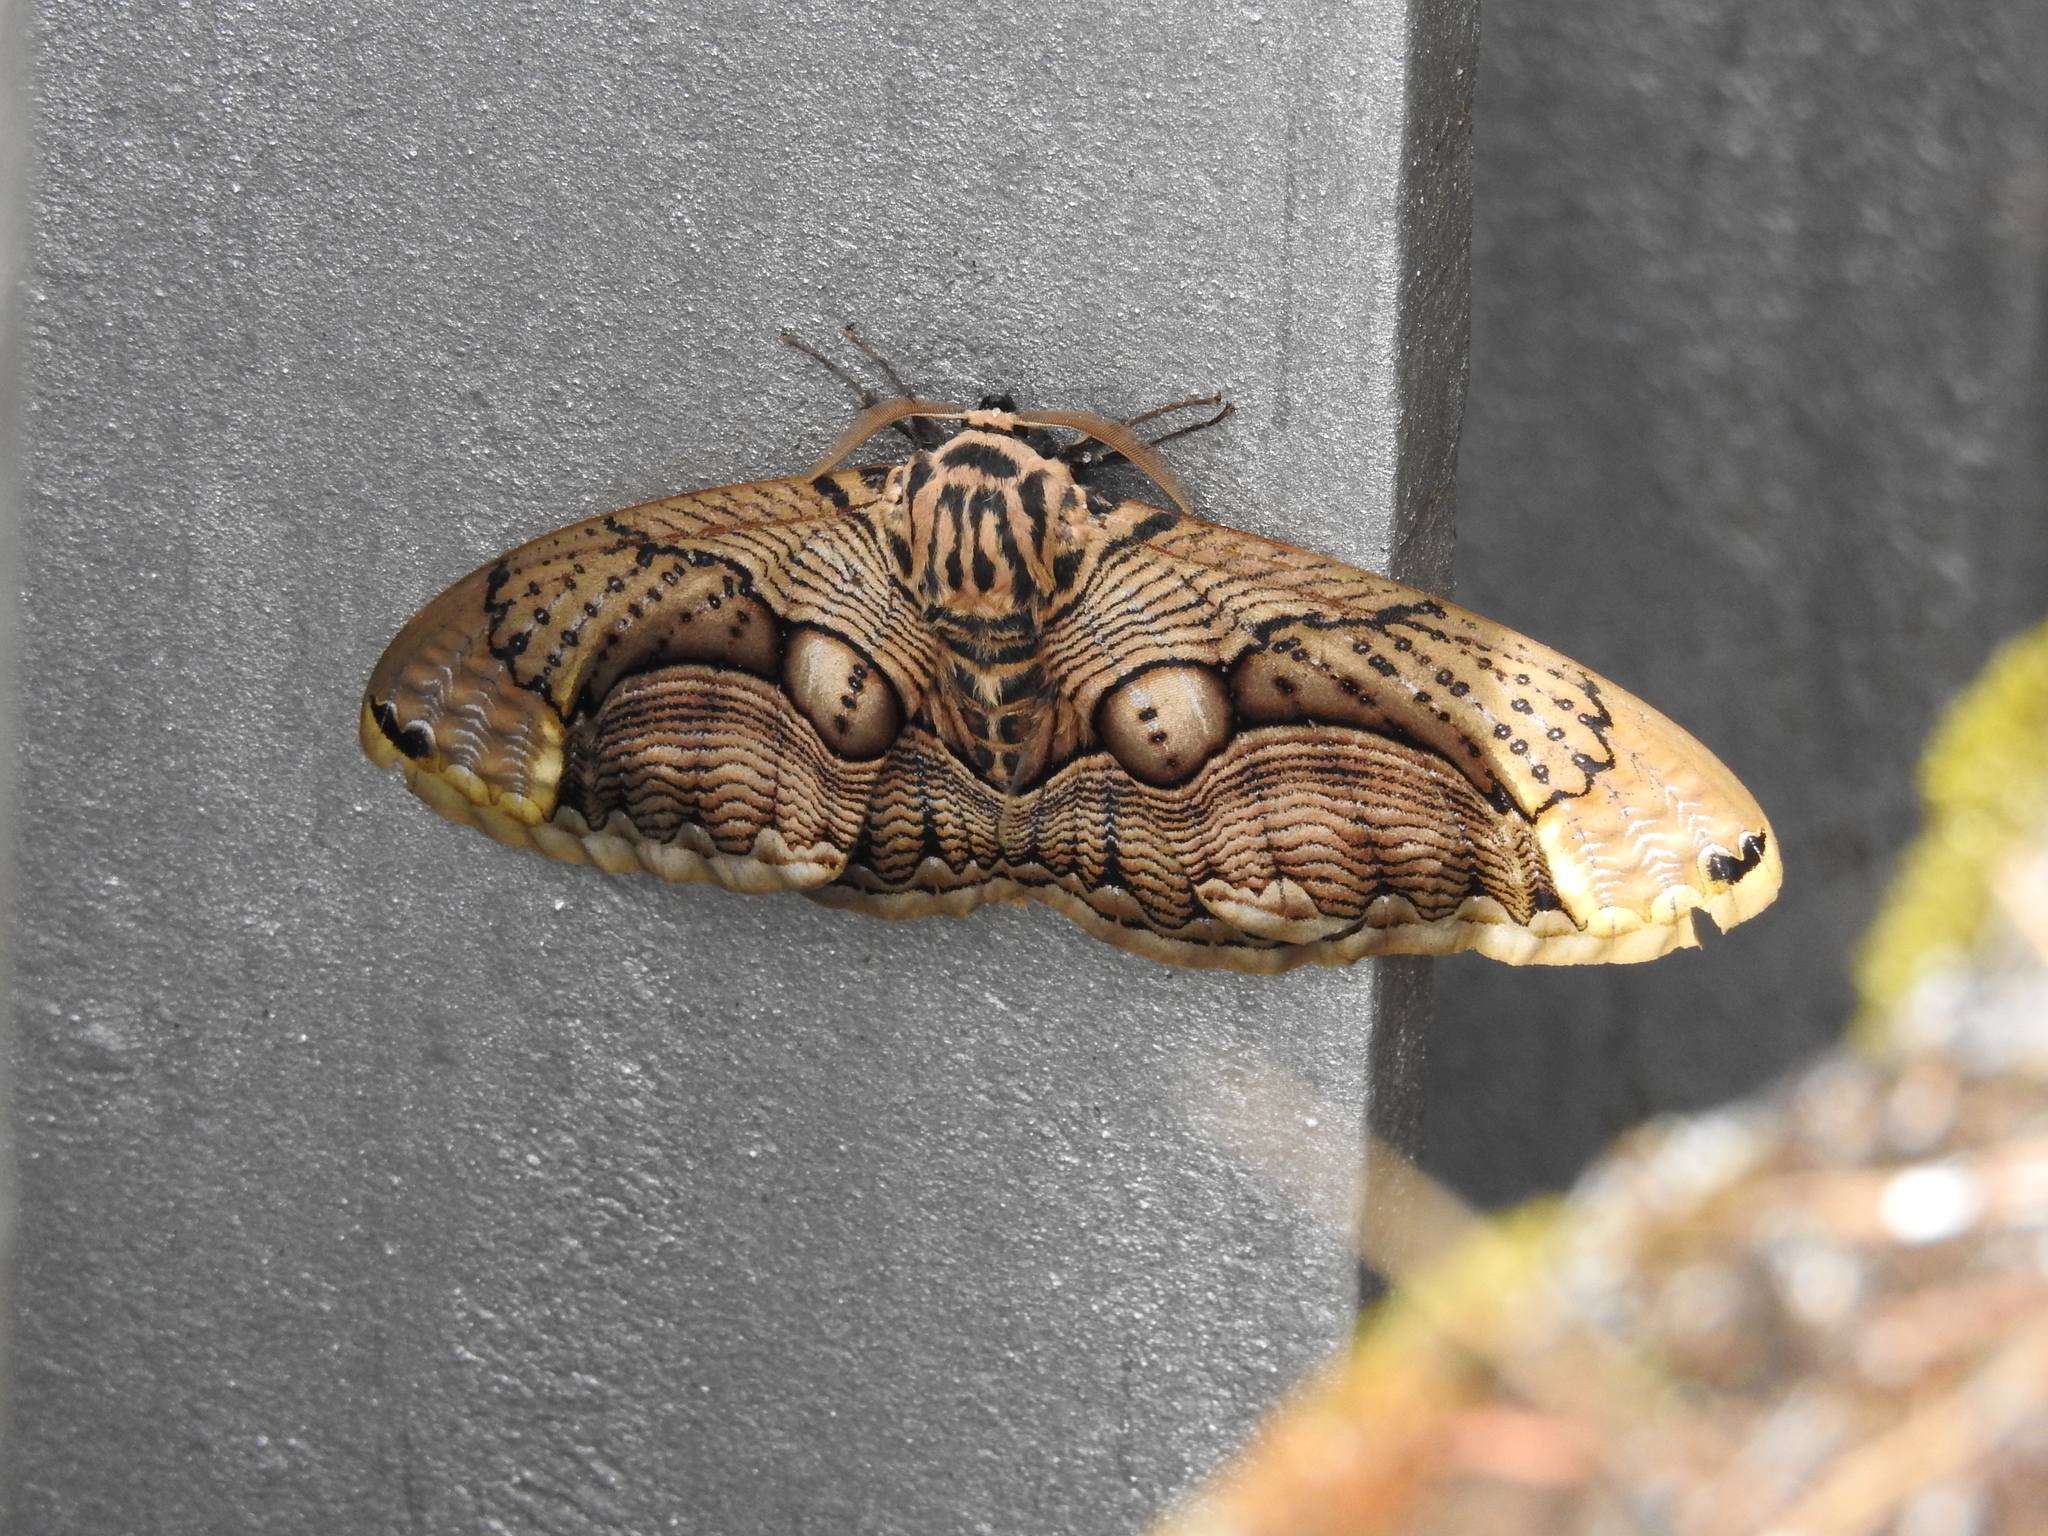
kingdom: Animalia
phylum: Arthropoda
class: Insecta
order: Lepidoptera
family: Brahmaeidae
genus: Brahmaea
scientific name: Brahmaea wallichii
